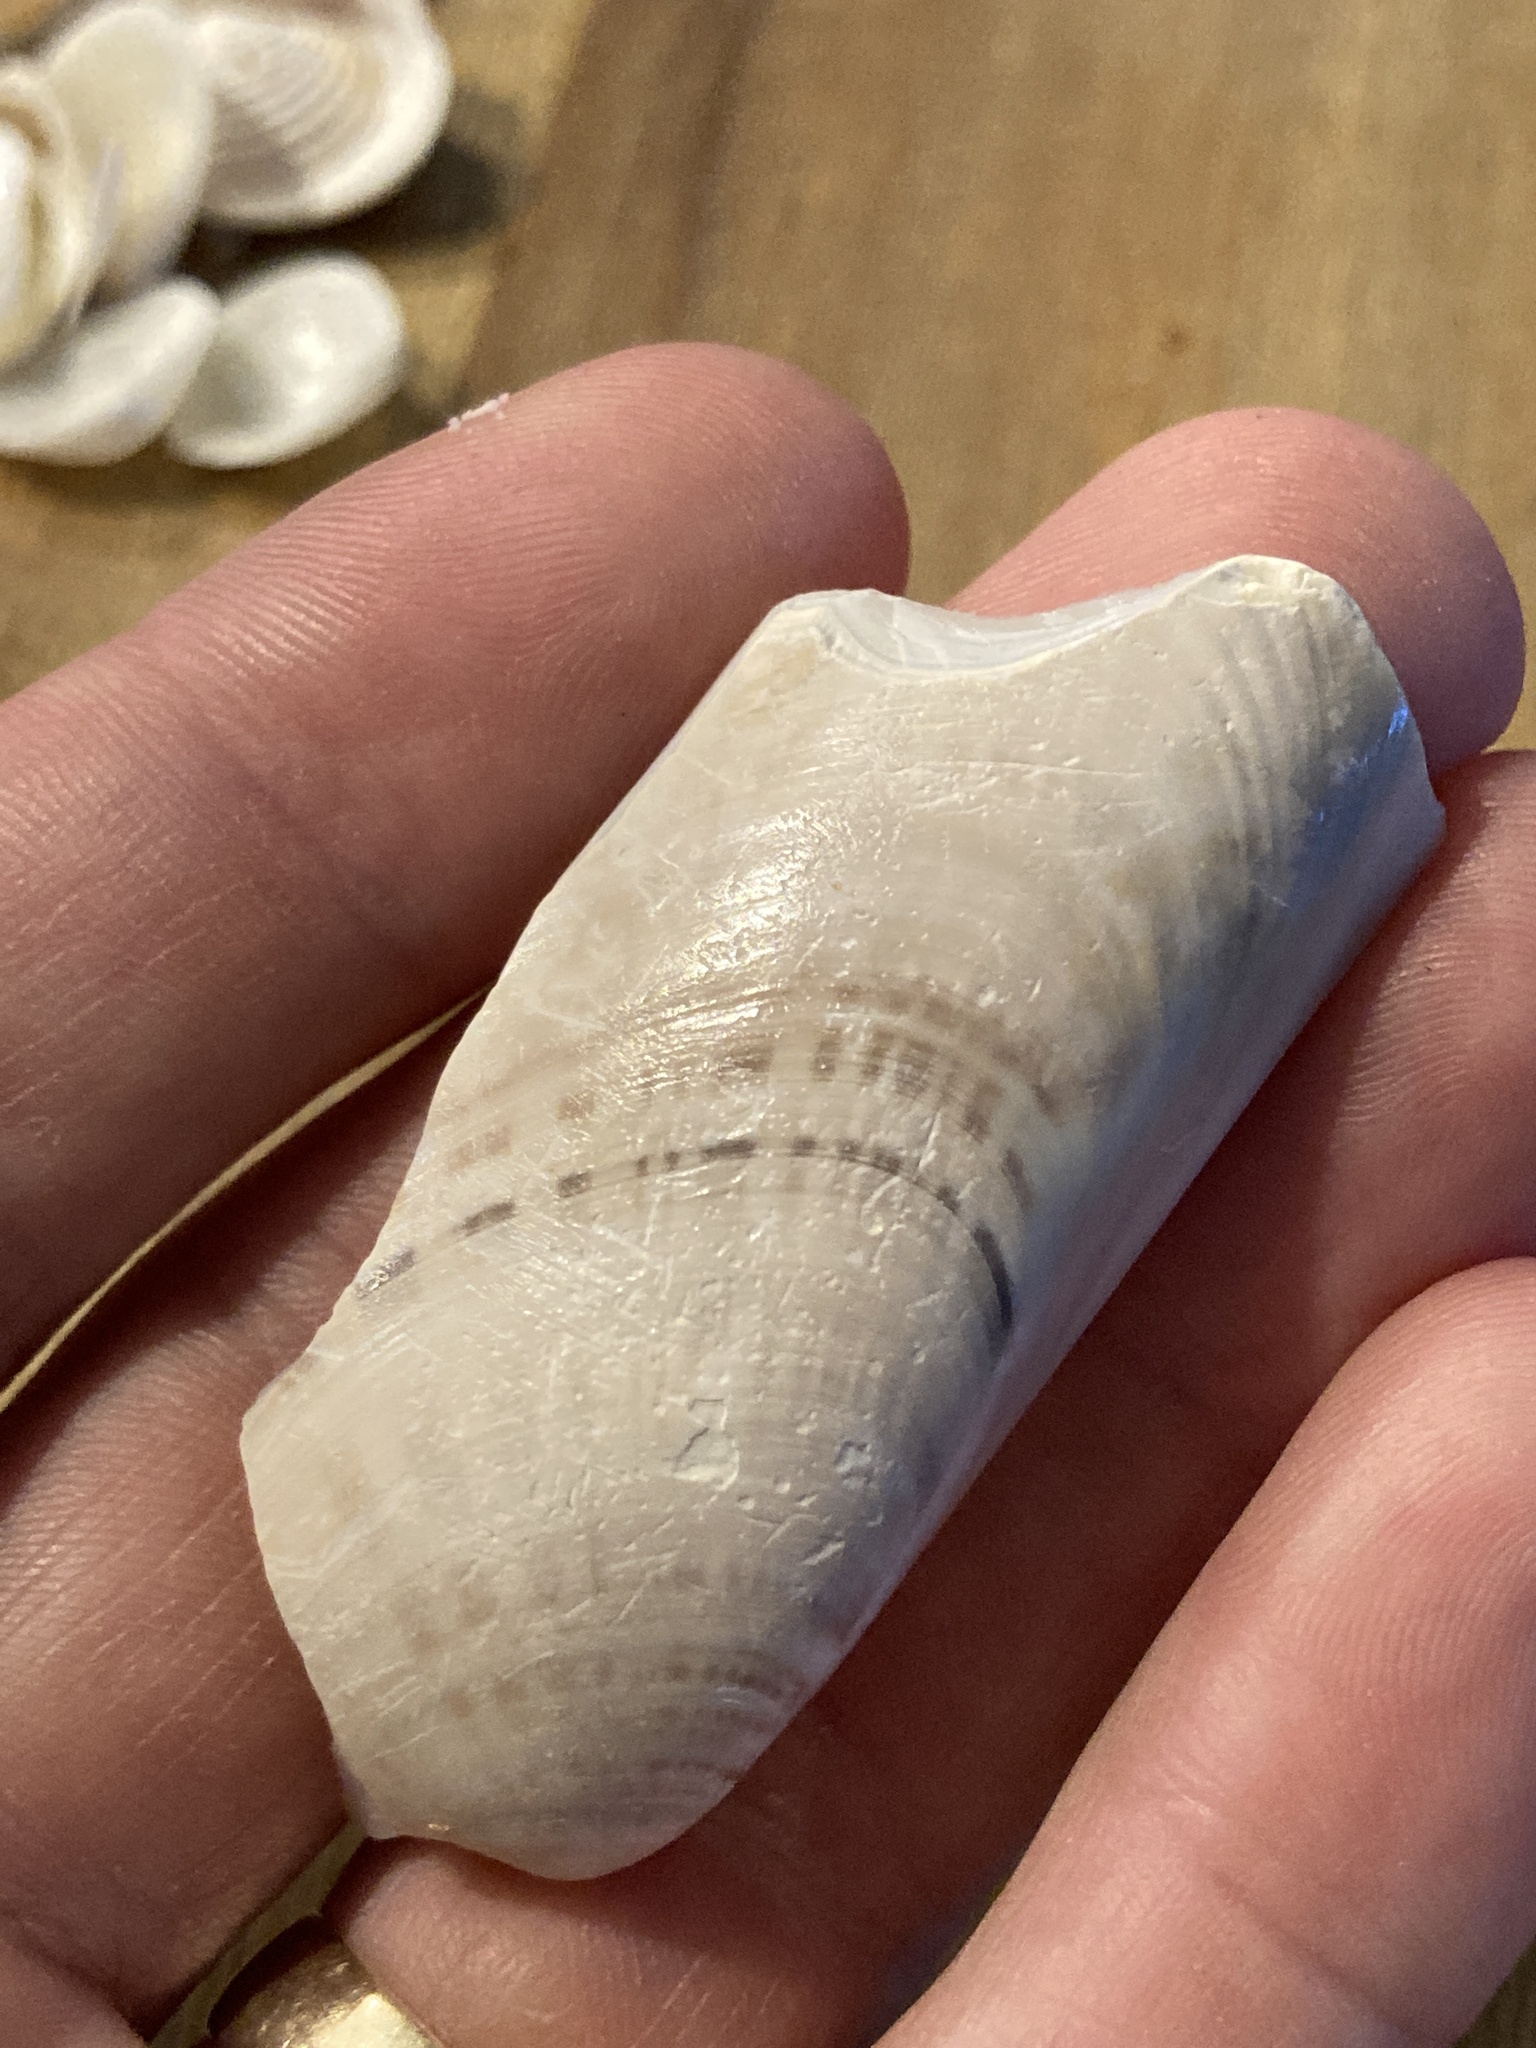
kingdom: Animalia
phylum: Mollusca
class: Bivalvia
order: Venerida
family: Veneridae
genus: Macrocallista
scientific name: Macrocallista nimbosa
